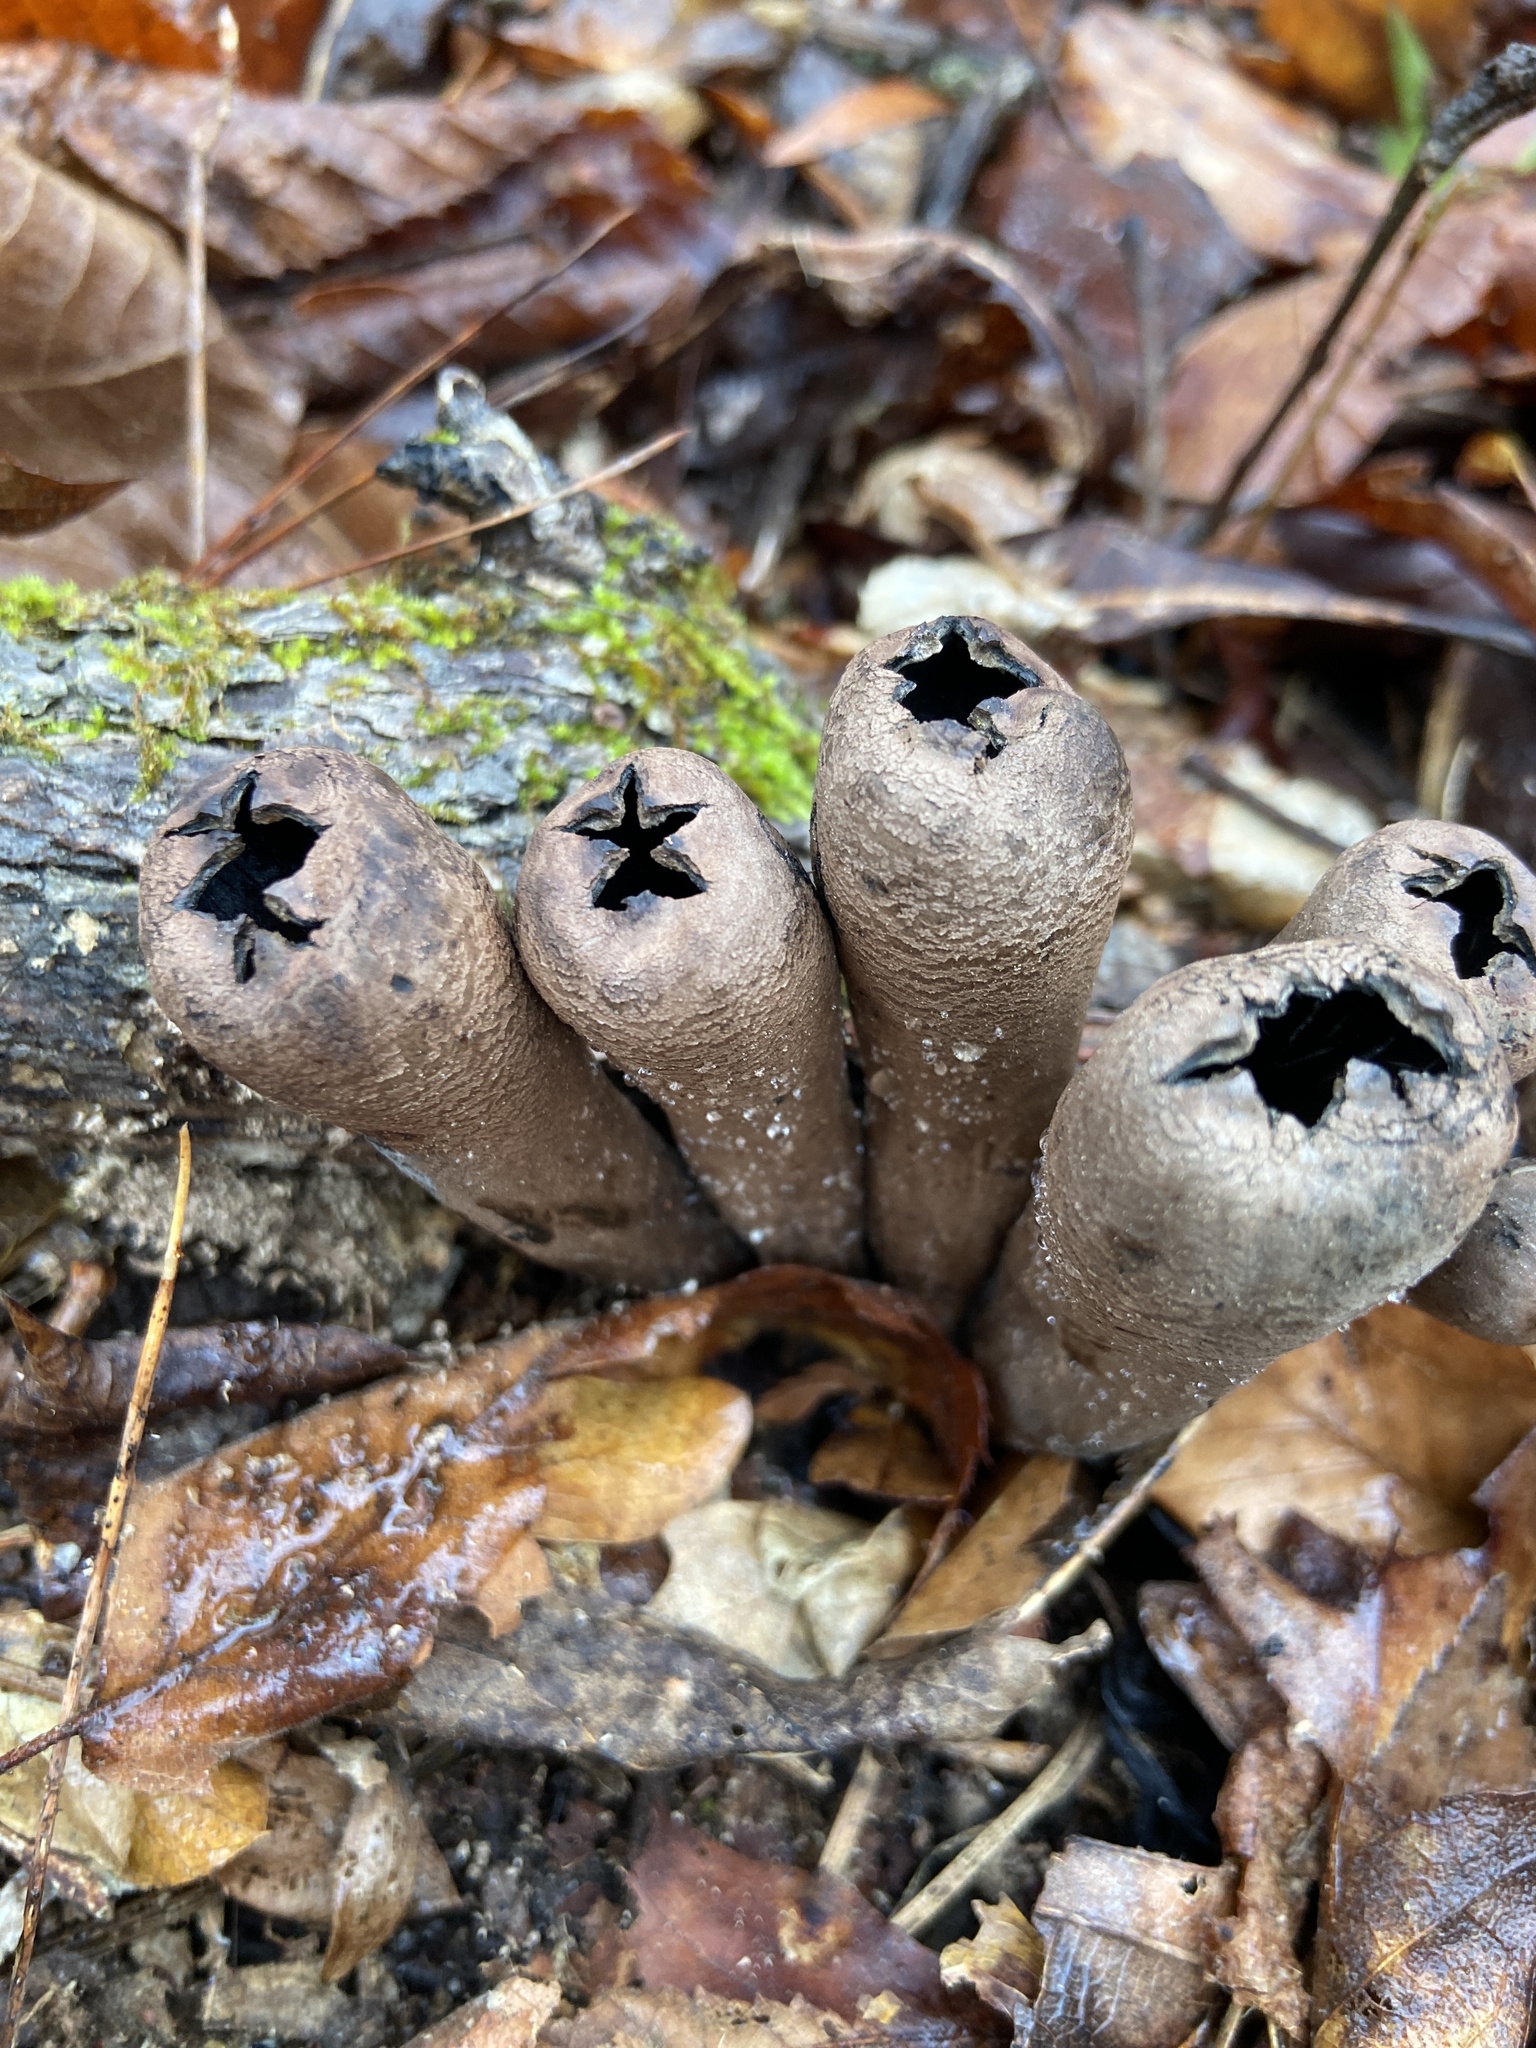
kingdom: Fungi
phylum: Ascomycota
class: Pezizomycetes
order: Pezizales
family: Sarcosomataceae
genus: Urnula
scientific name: Urnula craterium
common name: Devil's urn
